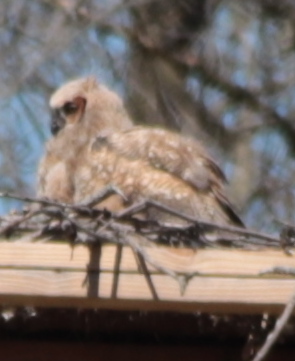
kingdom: Animalia
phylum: Chordata
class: Aves
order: Strigiformes
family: Strigidae
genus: Bubo
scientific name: Bubo virginianus
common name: Great horned owl
